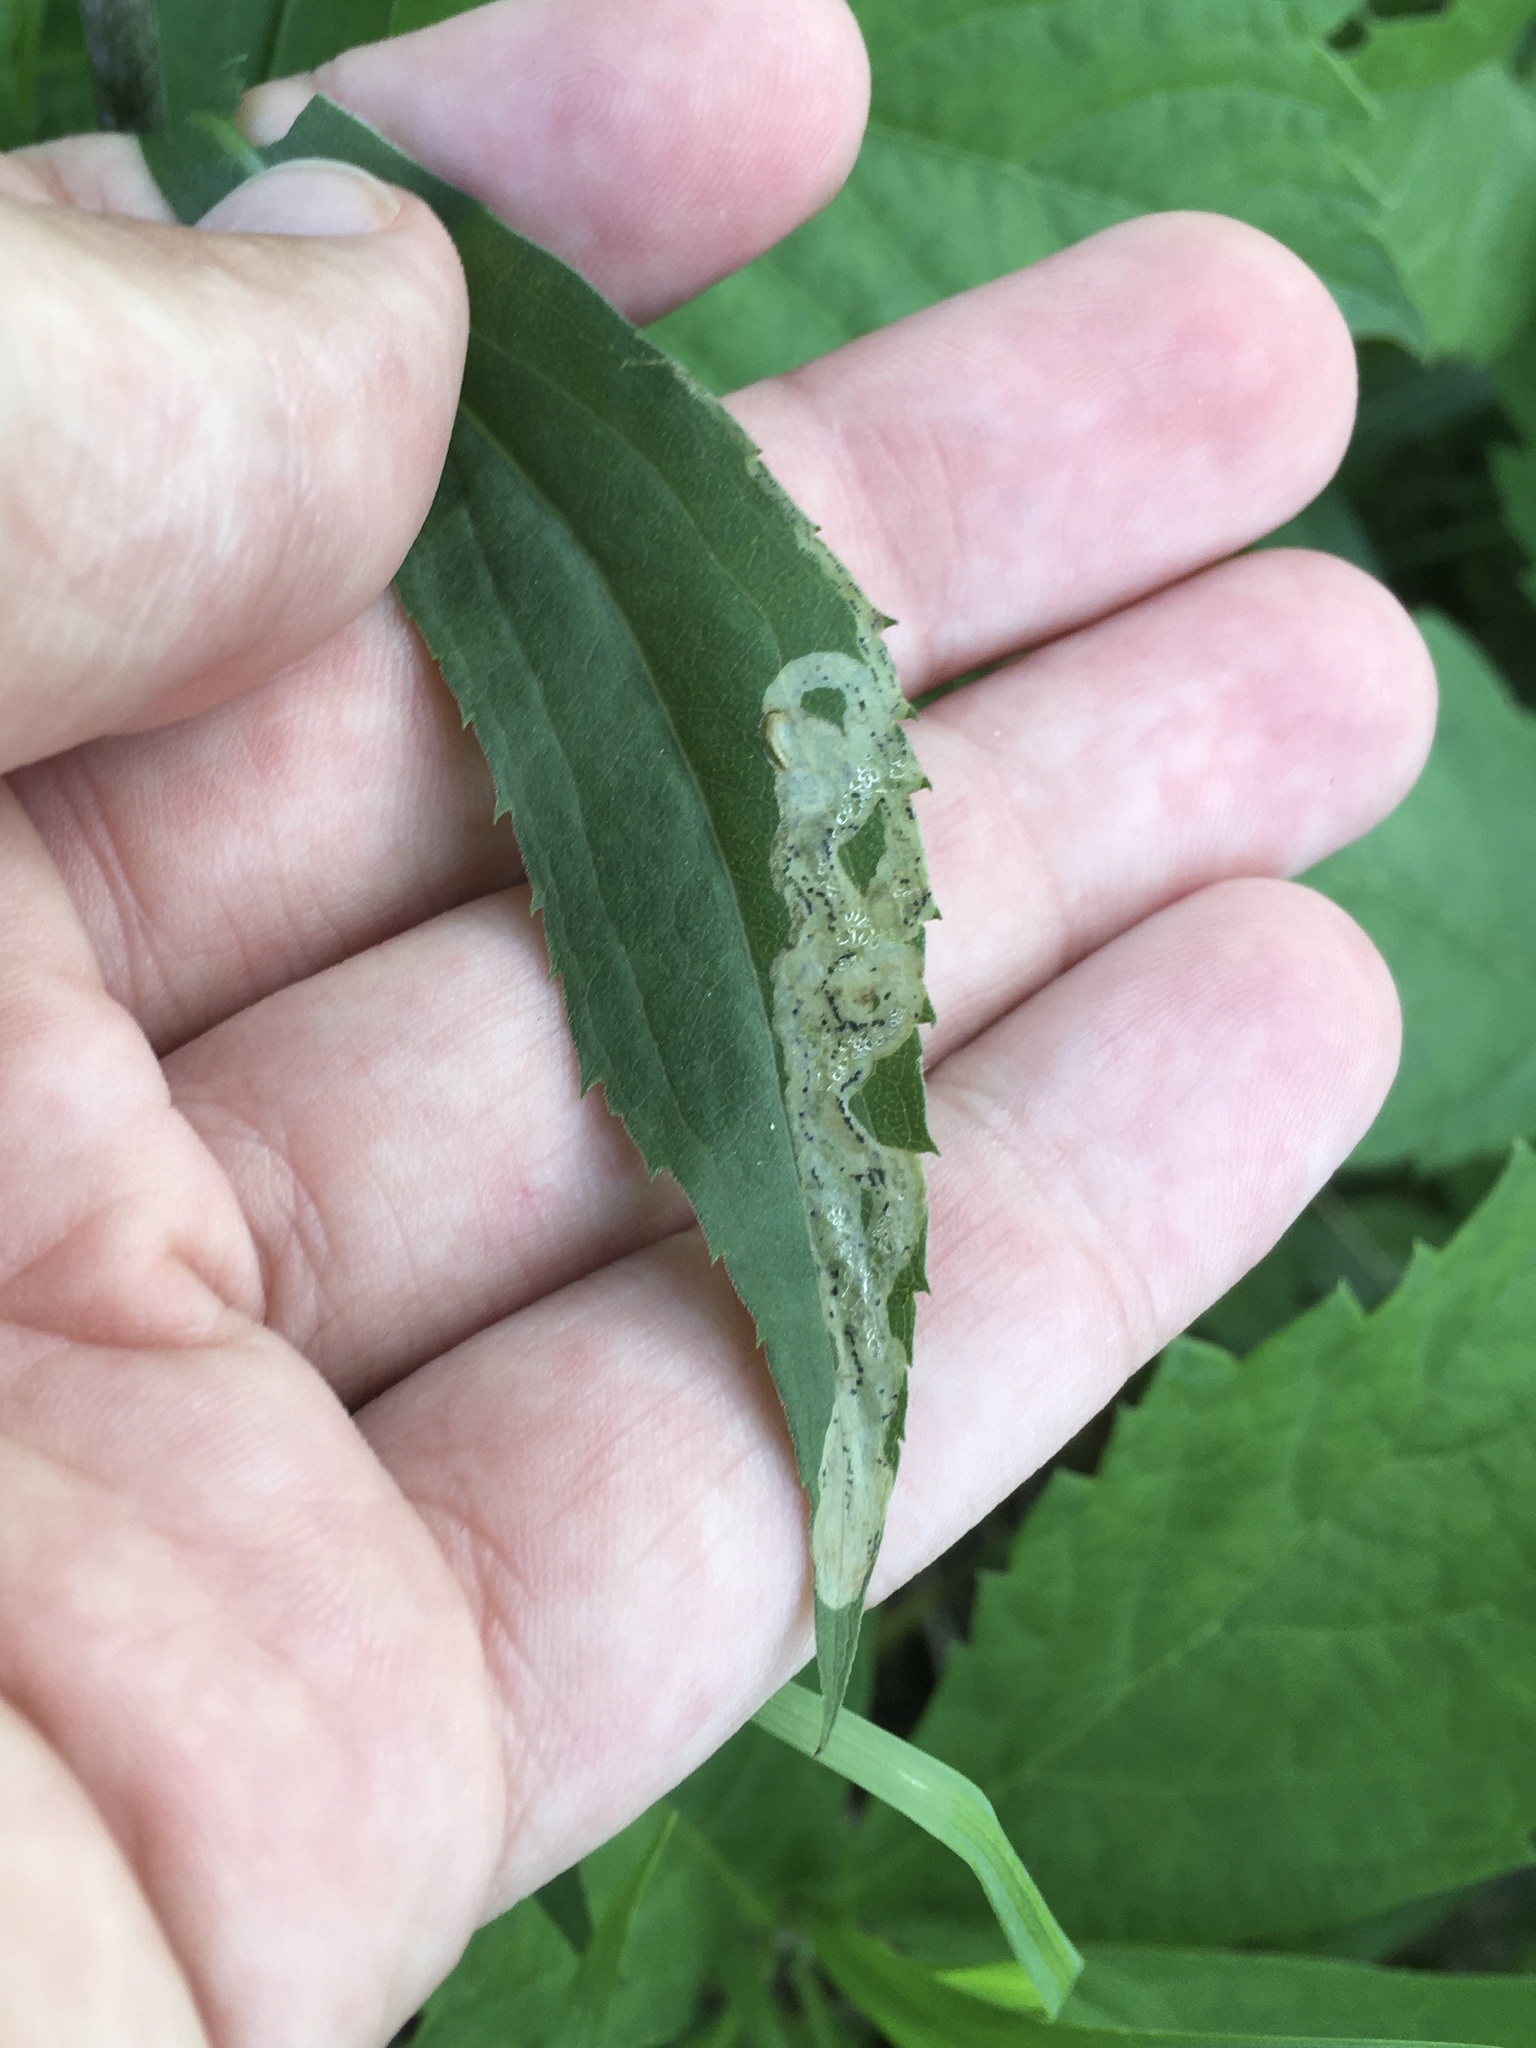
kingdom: Animalia
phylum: Arthropoda
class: Insecta
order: Diptera
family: Agromyzidae
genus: Phytomyza
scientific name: Phytomyza solidaginophaga
